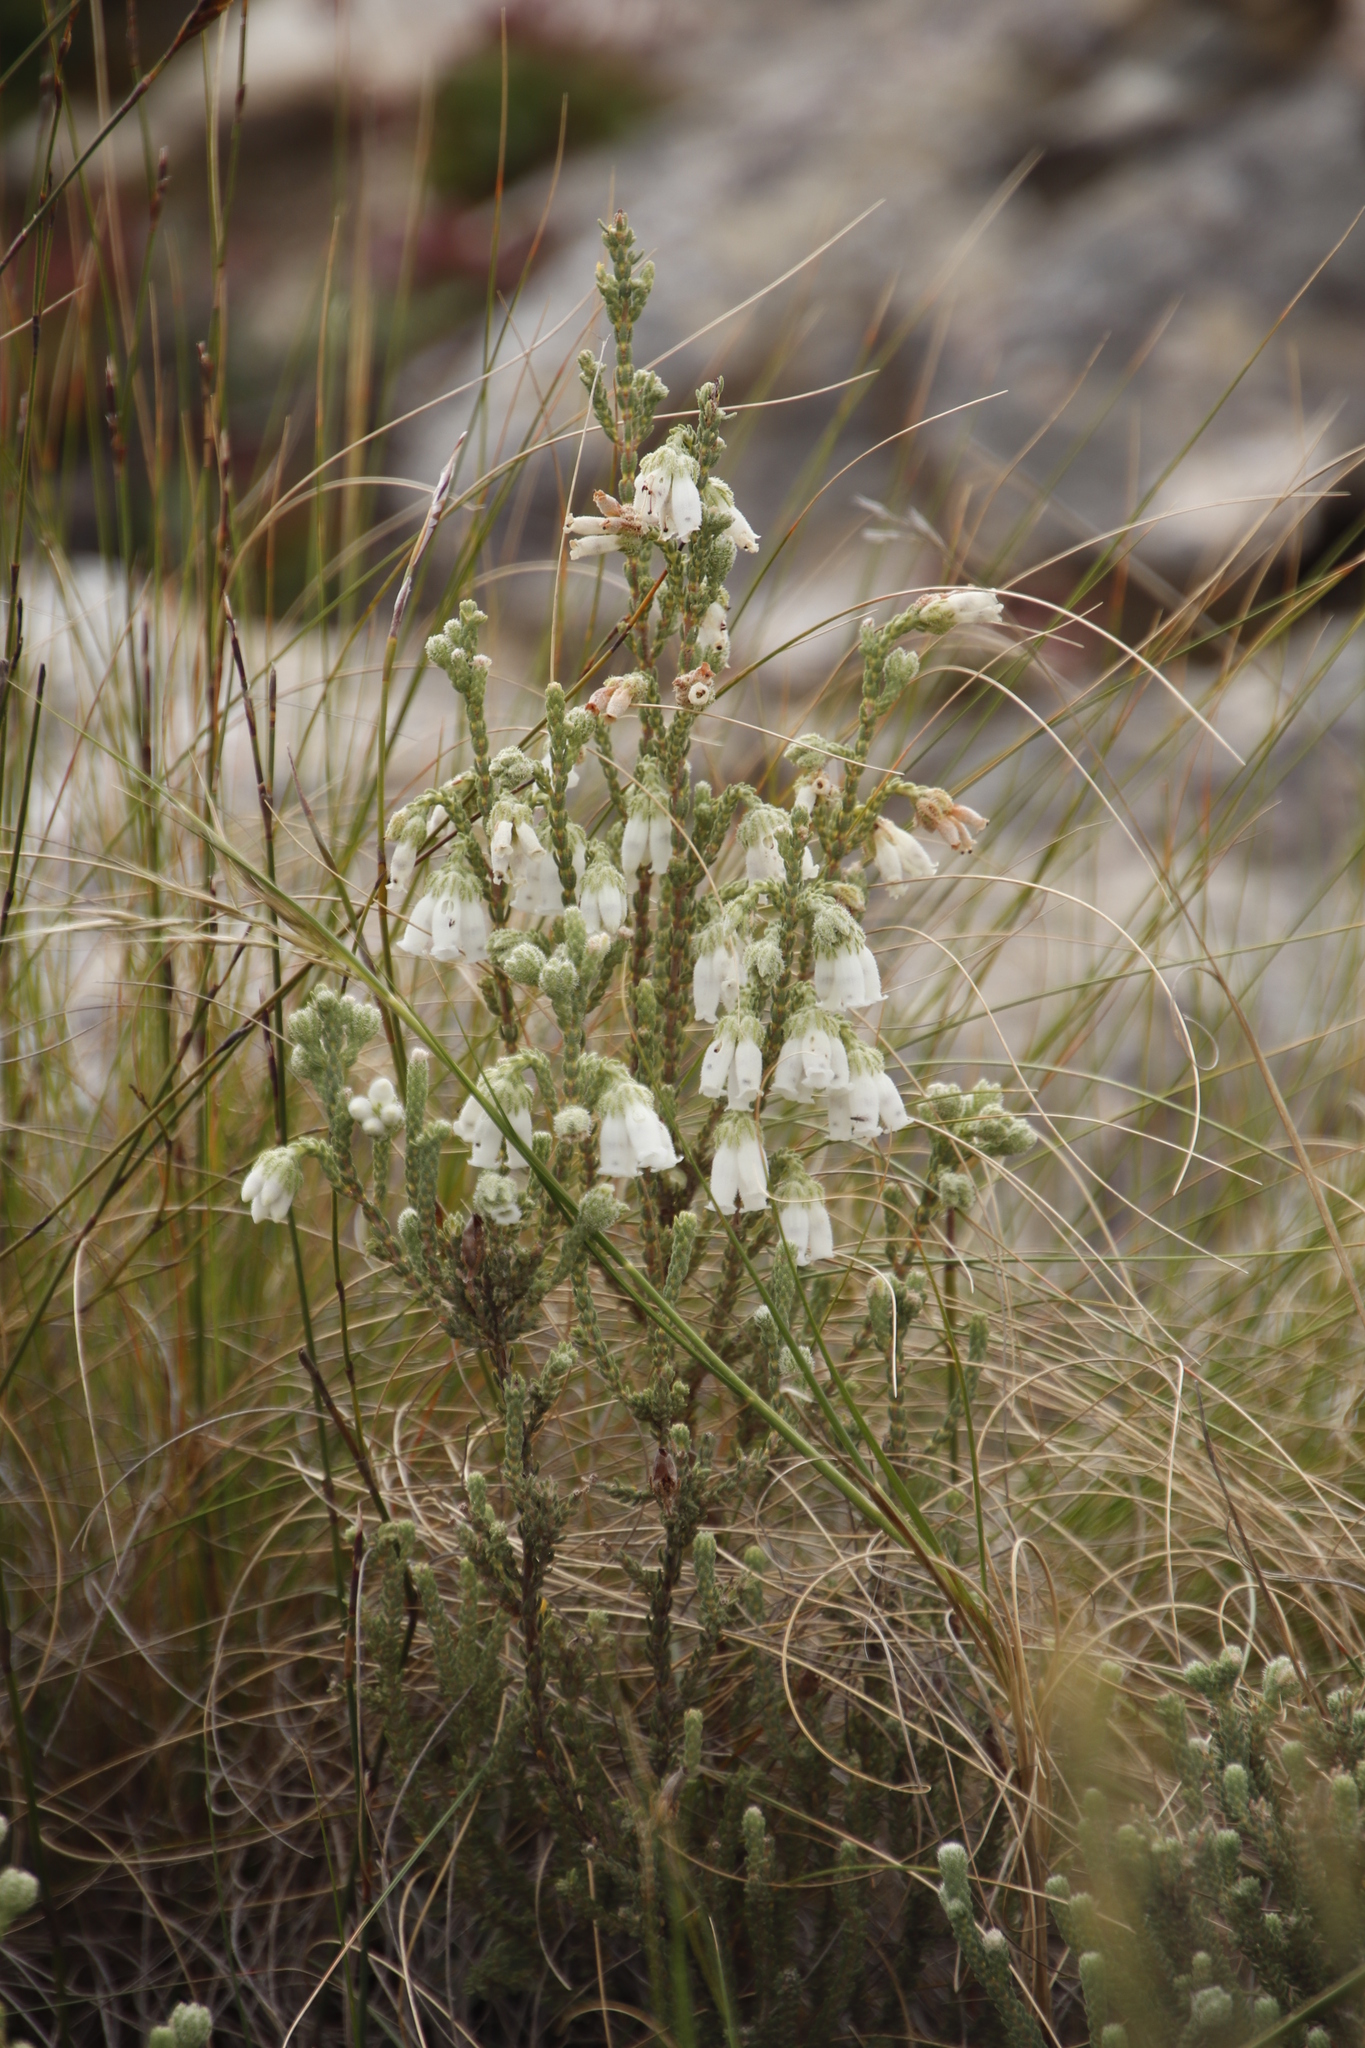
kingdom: Plantae
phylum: Tracheophyta
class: Magnoliopsida
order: Ericales
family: Ericaceae
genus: Erica
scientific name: Erica strigilifolia
